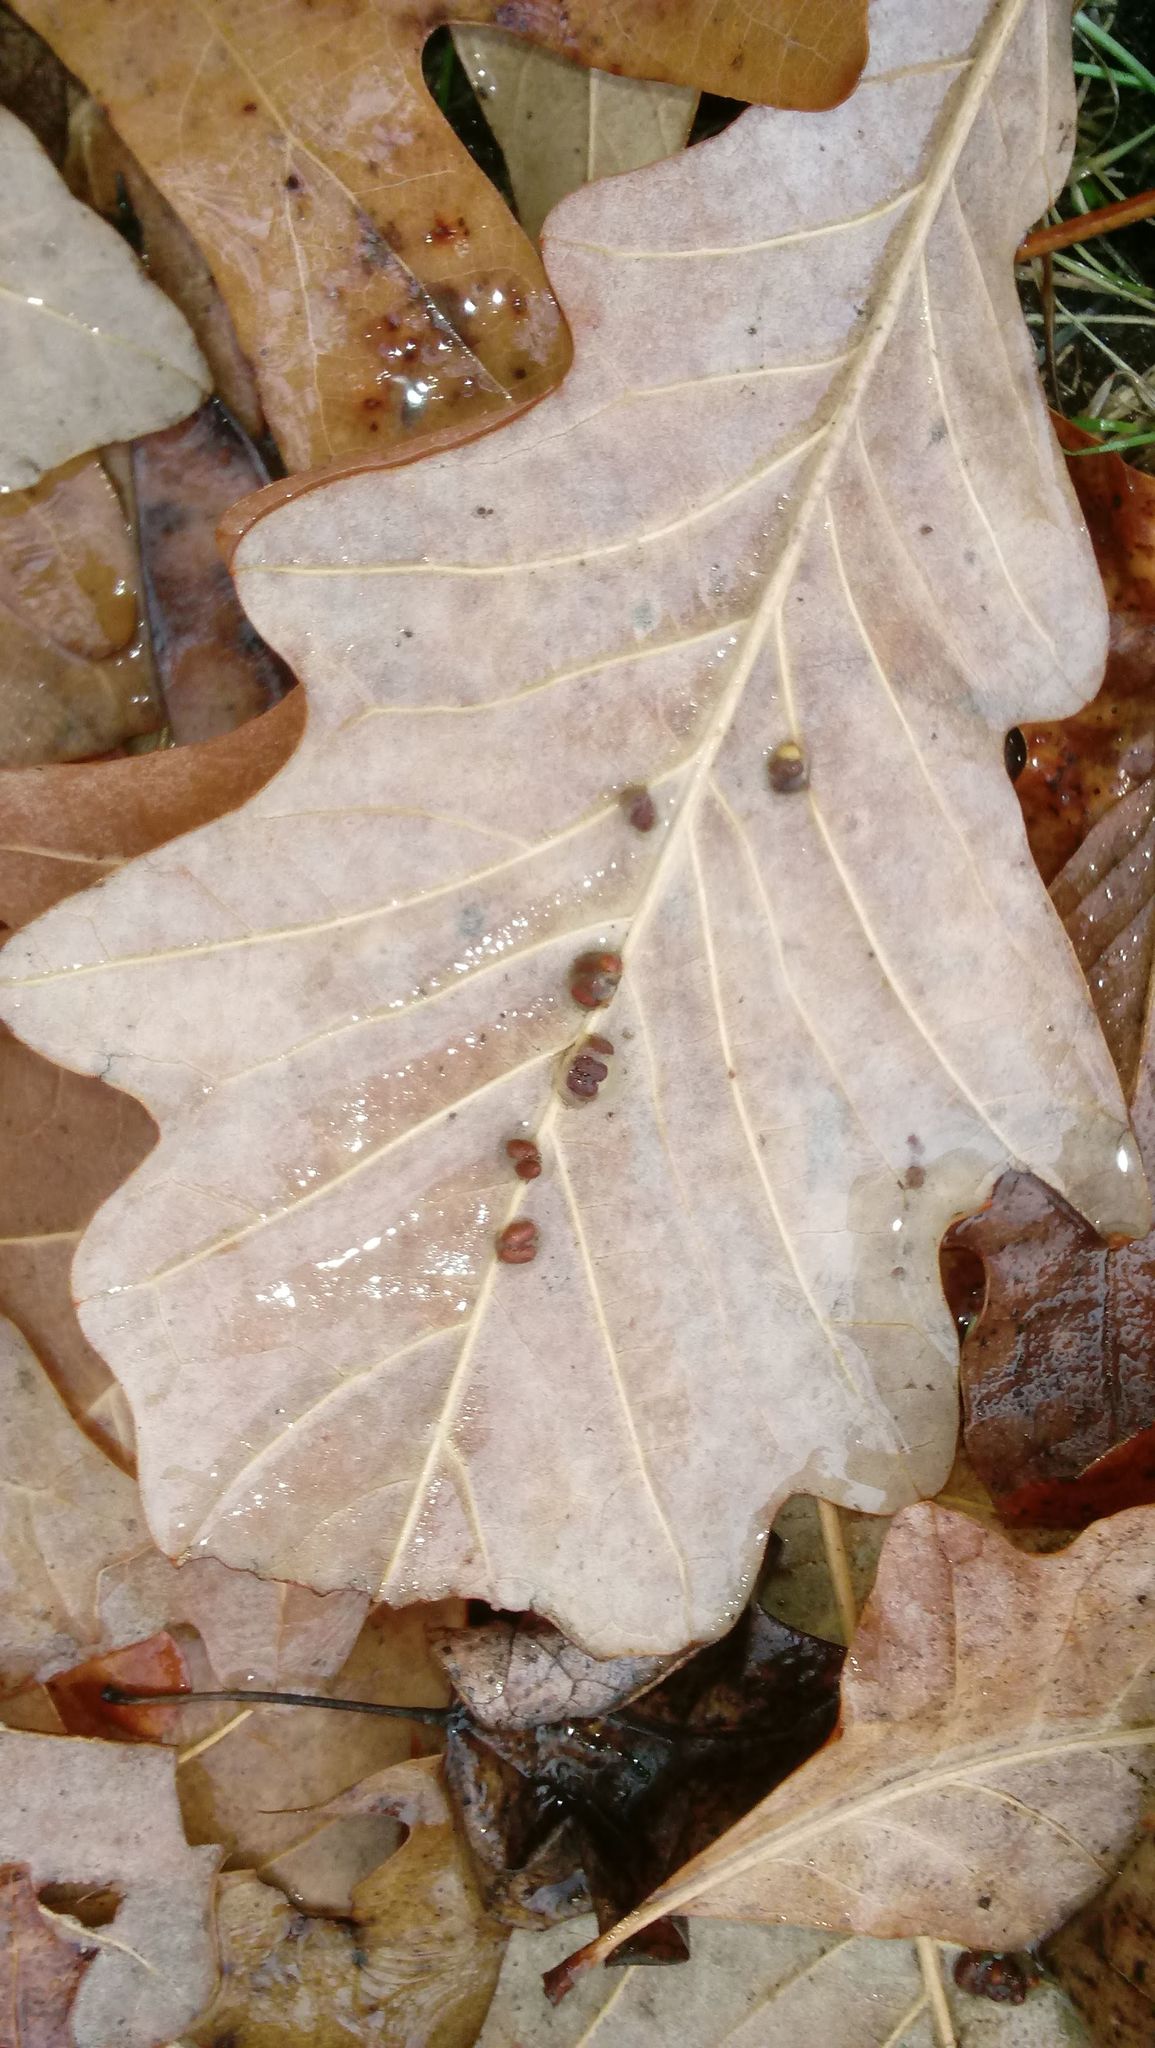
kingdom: Animalia
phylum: Arthropoda
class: Insecta
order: Hymenoptera
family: Cynipidae
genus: Andricus
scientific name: Andricus Druon ignotum
